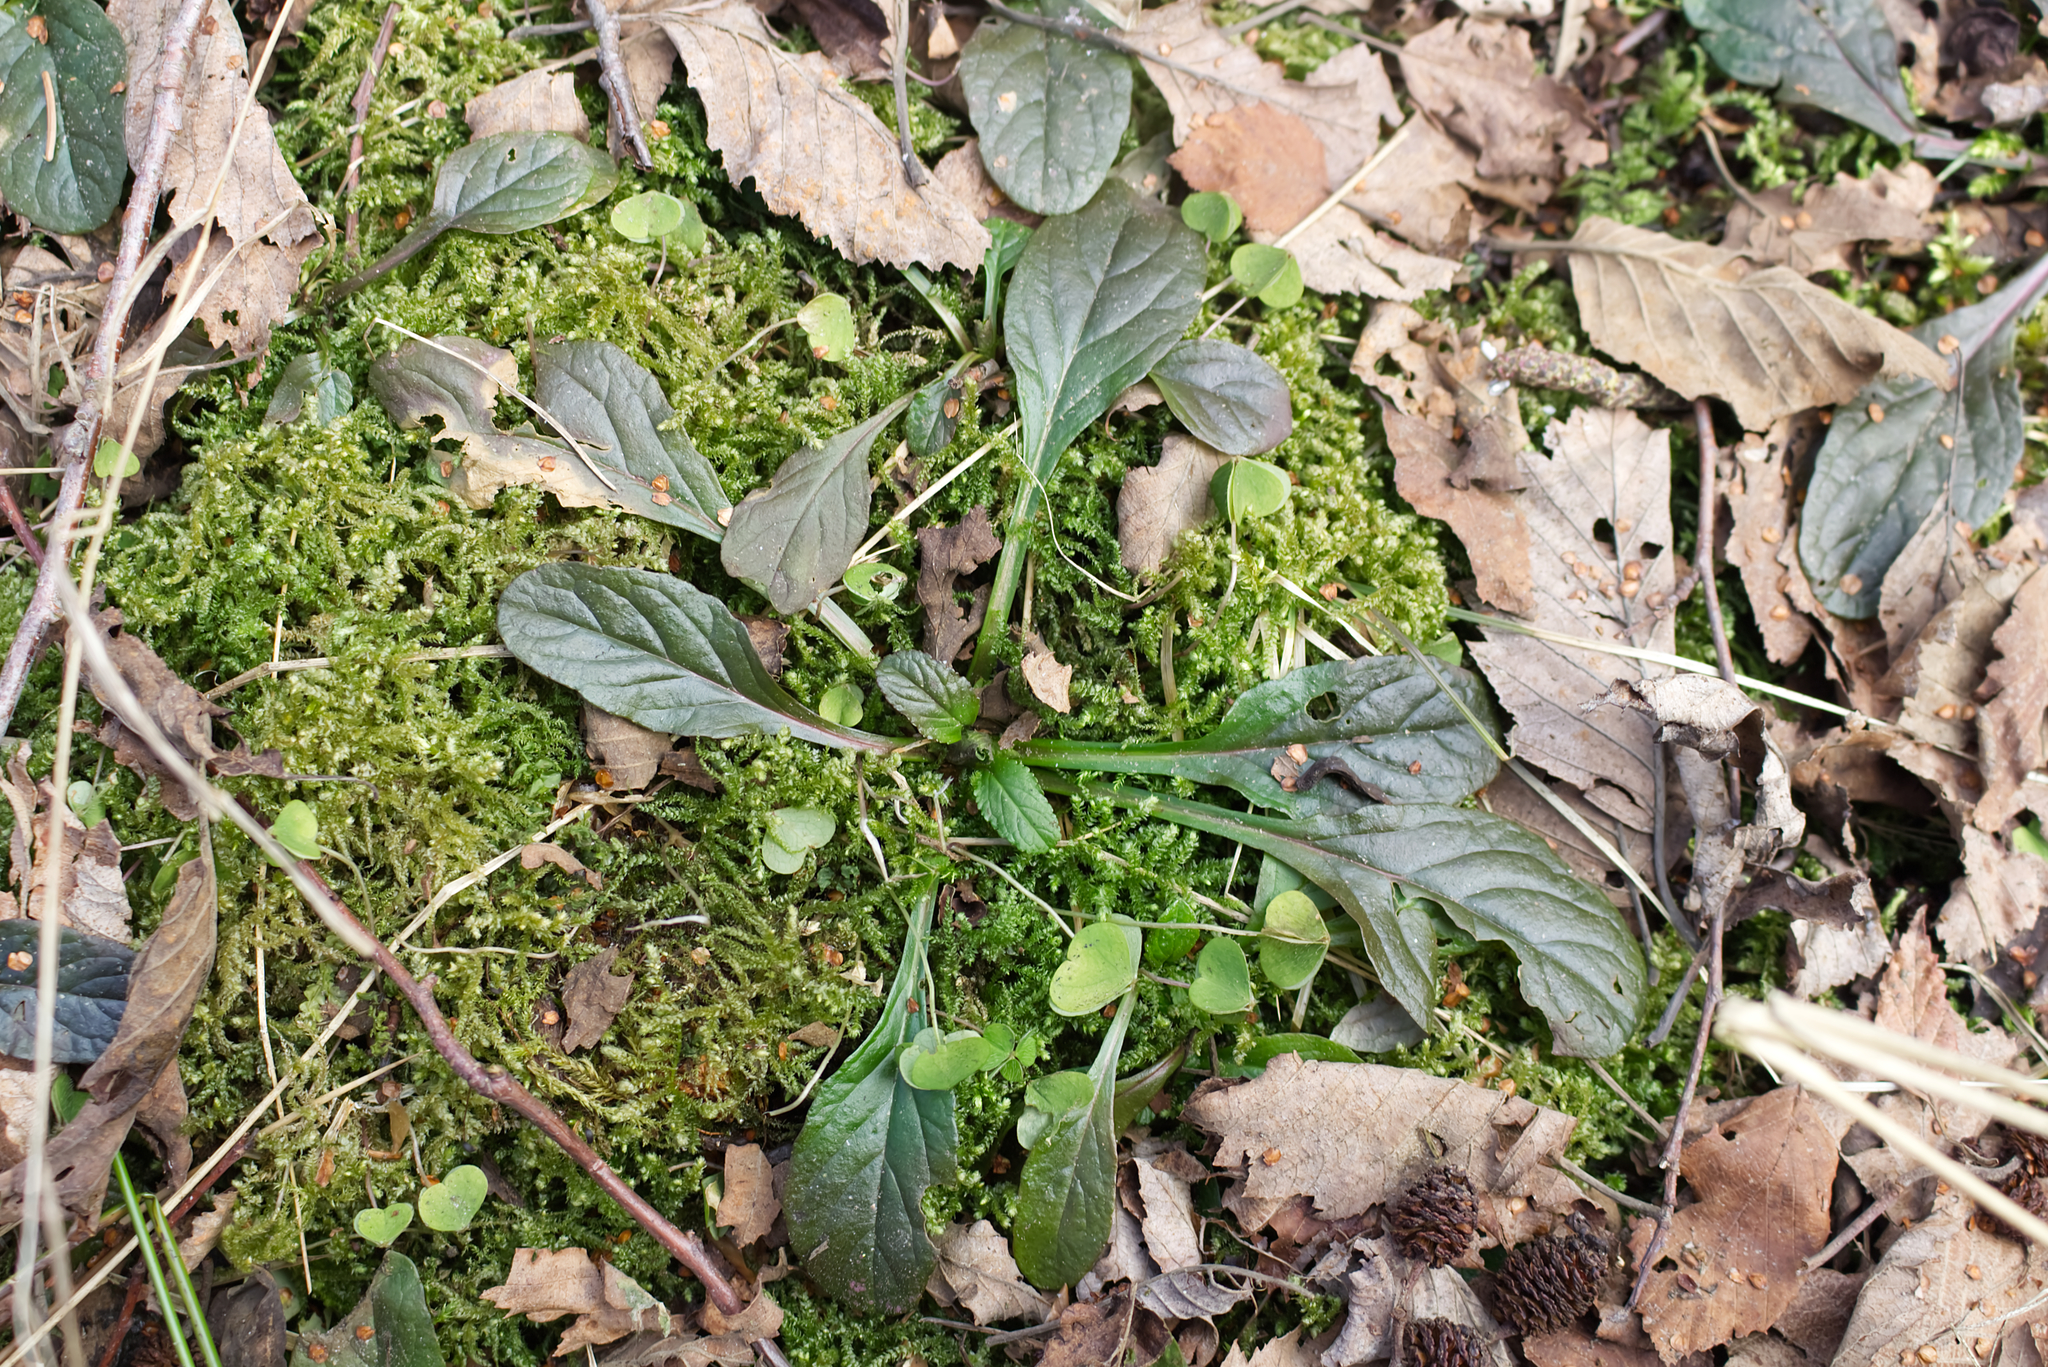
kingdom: Plantae
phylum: Tracheophyta
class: Magnoliopsida
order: Lamiales
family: Lamiaceae
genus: Ajuga
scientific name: Ajuga reptans
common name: Bugle
